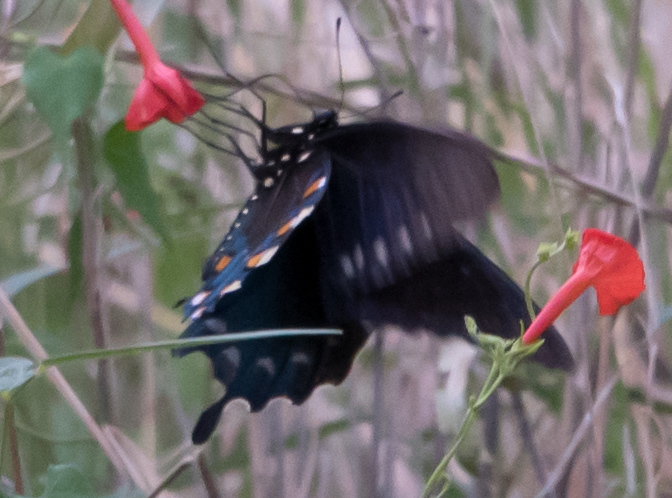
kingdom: Animalia
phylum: Arthropoda
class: Insecta
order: Lepidoptera
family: Papilionidae
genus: Battus
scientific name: Battus philenor
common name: Pipevine swallowtail
